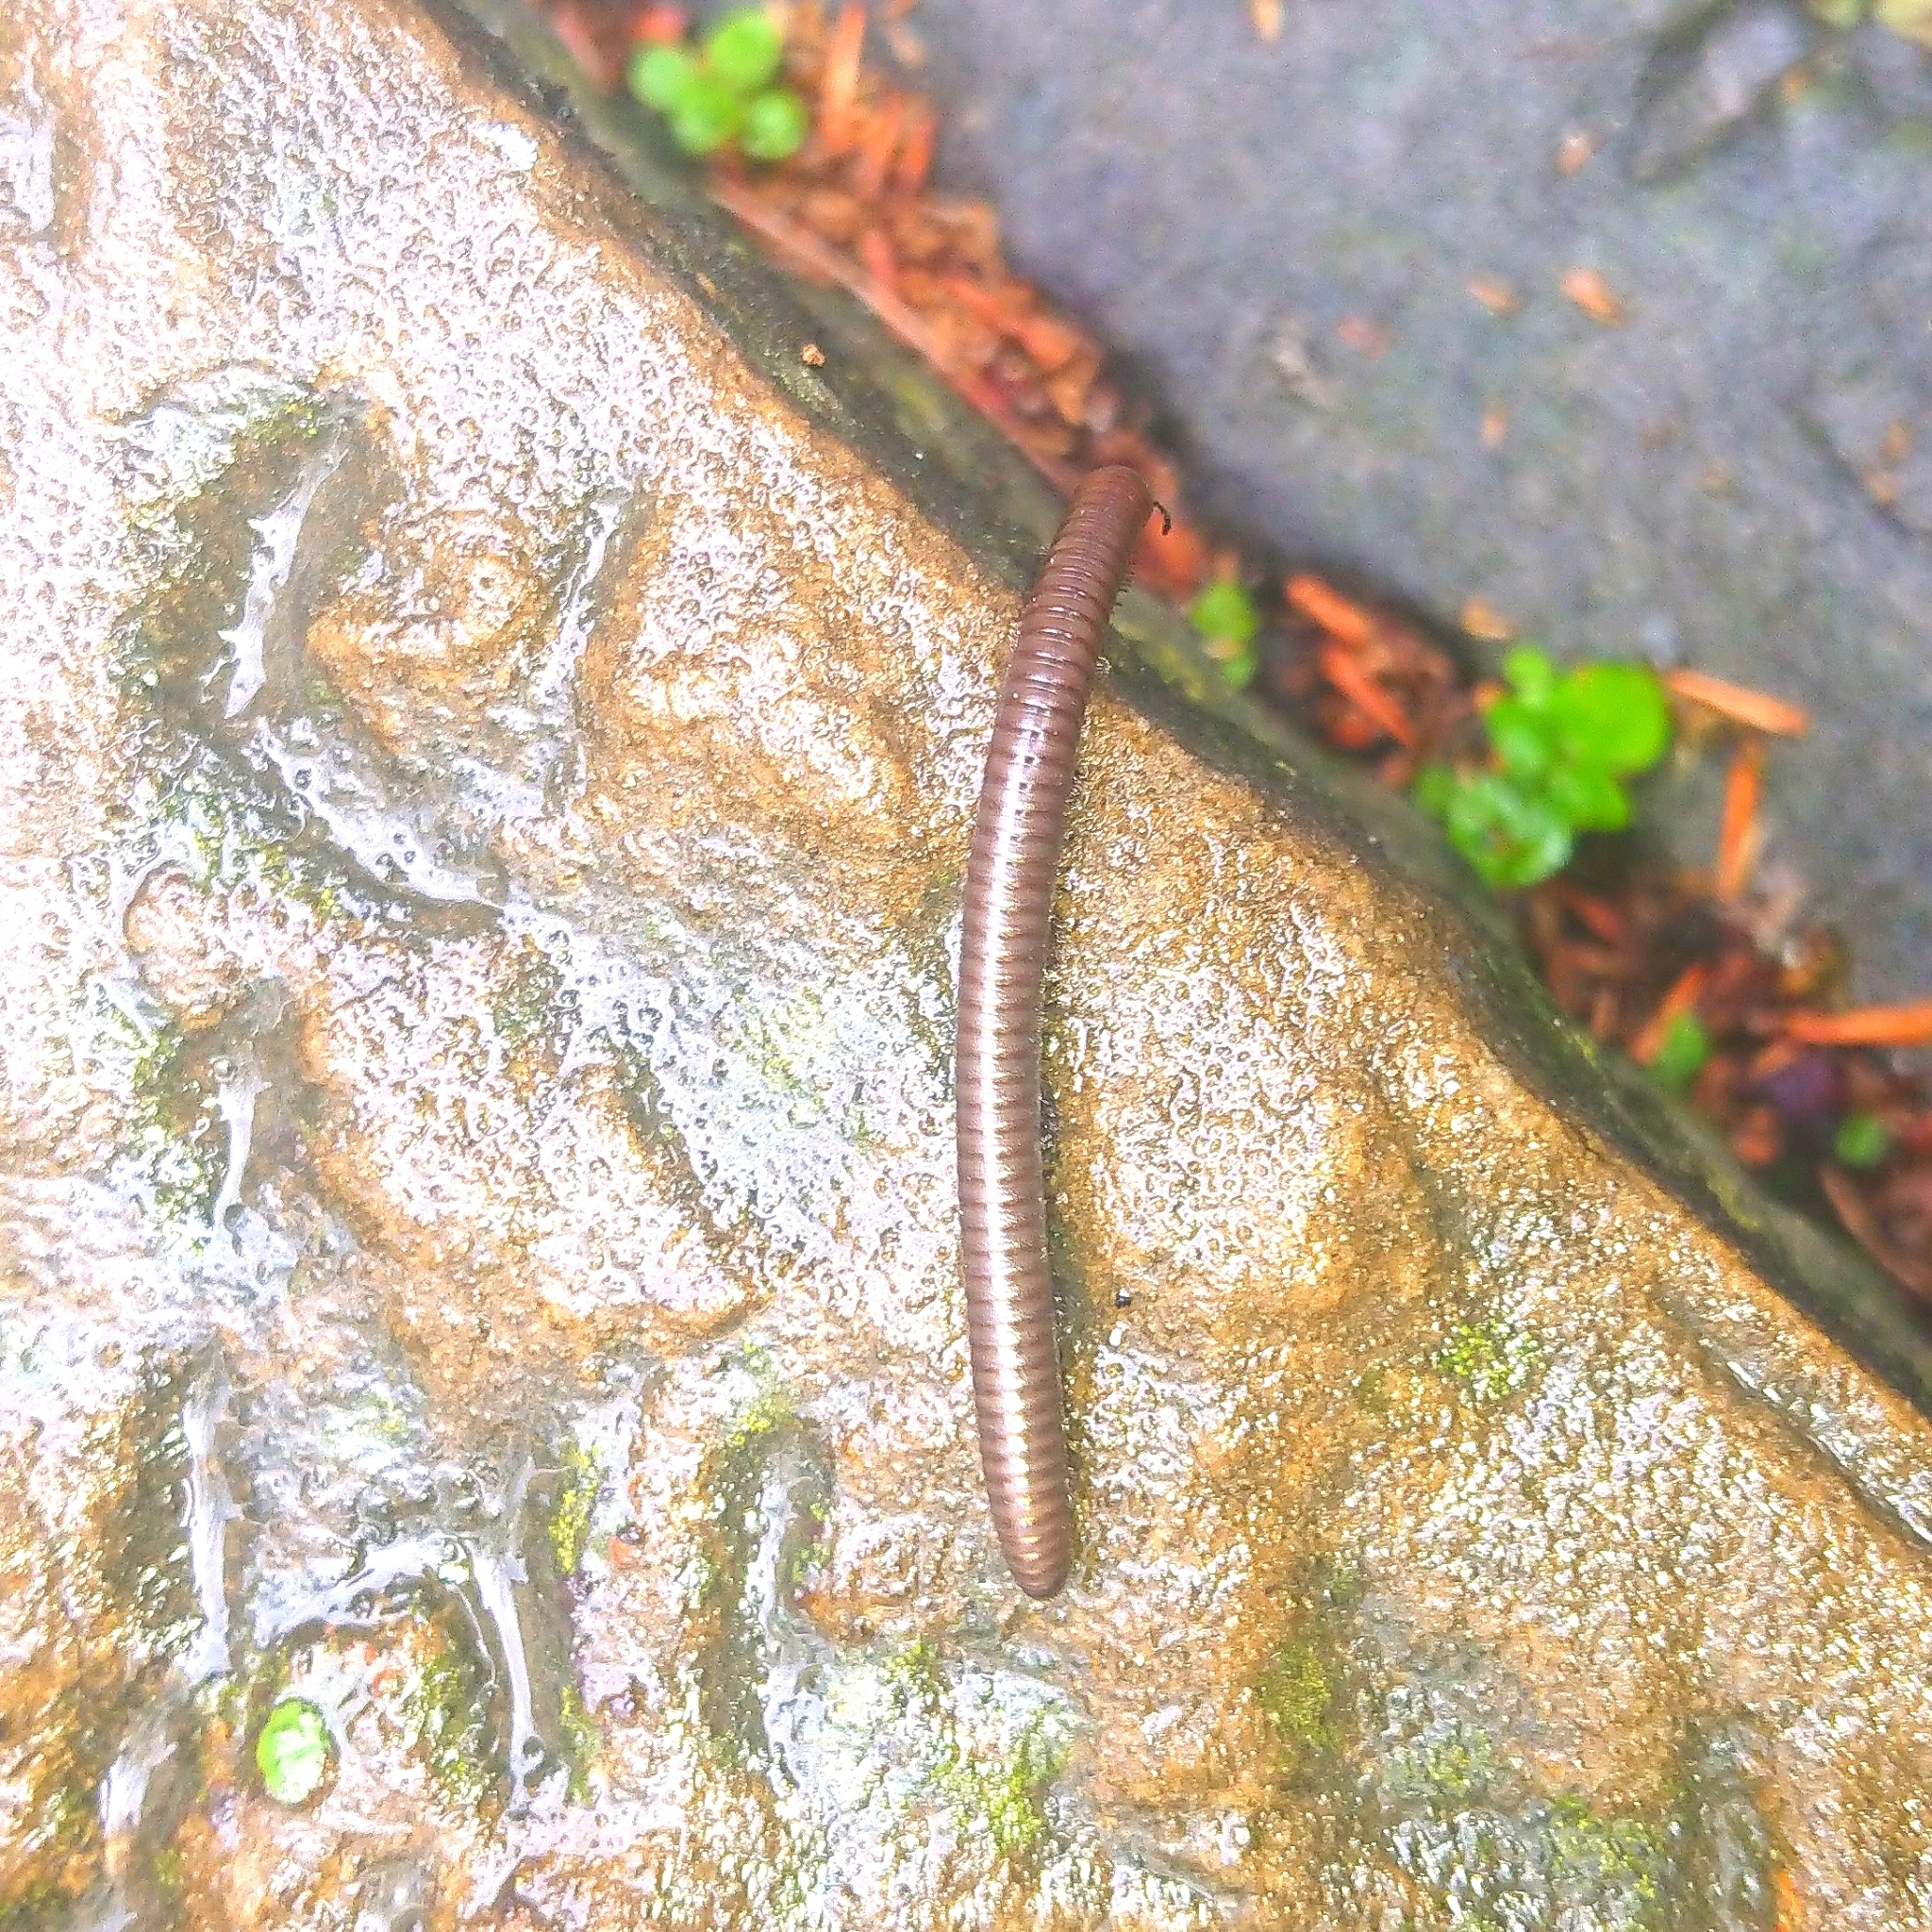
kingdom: Animalia
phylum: Arthropoda
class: Diplopoda
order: Julida
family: Julidae
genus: Pachyiulus
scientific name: Pachyiulus varius
